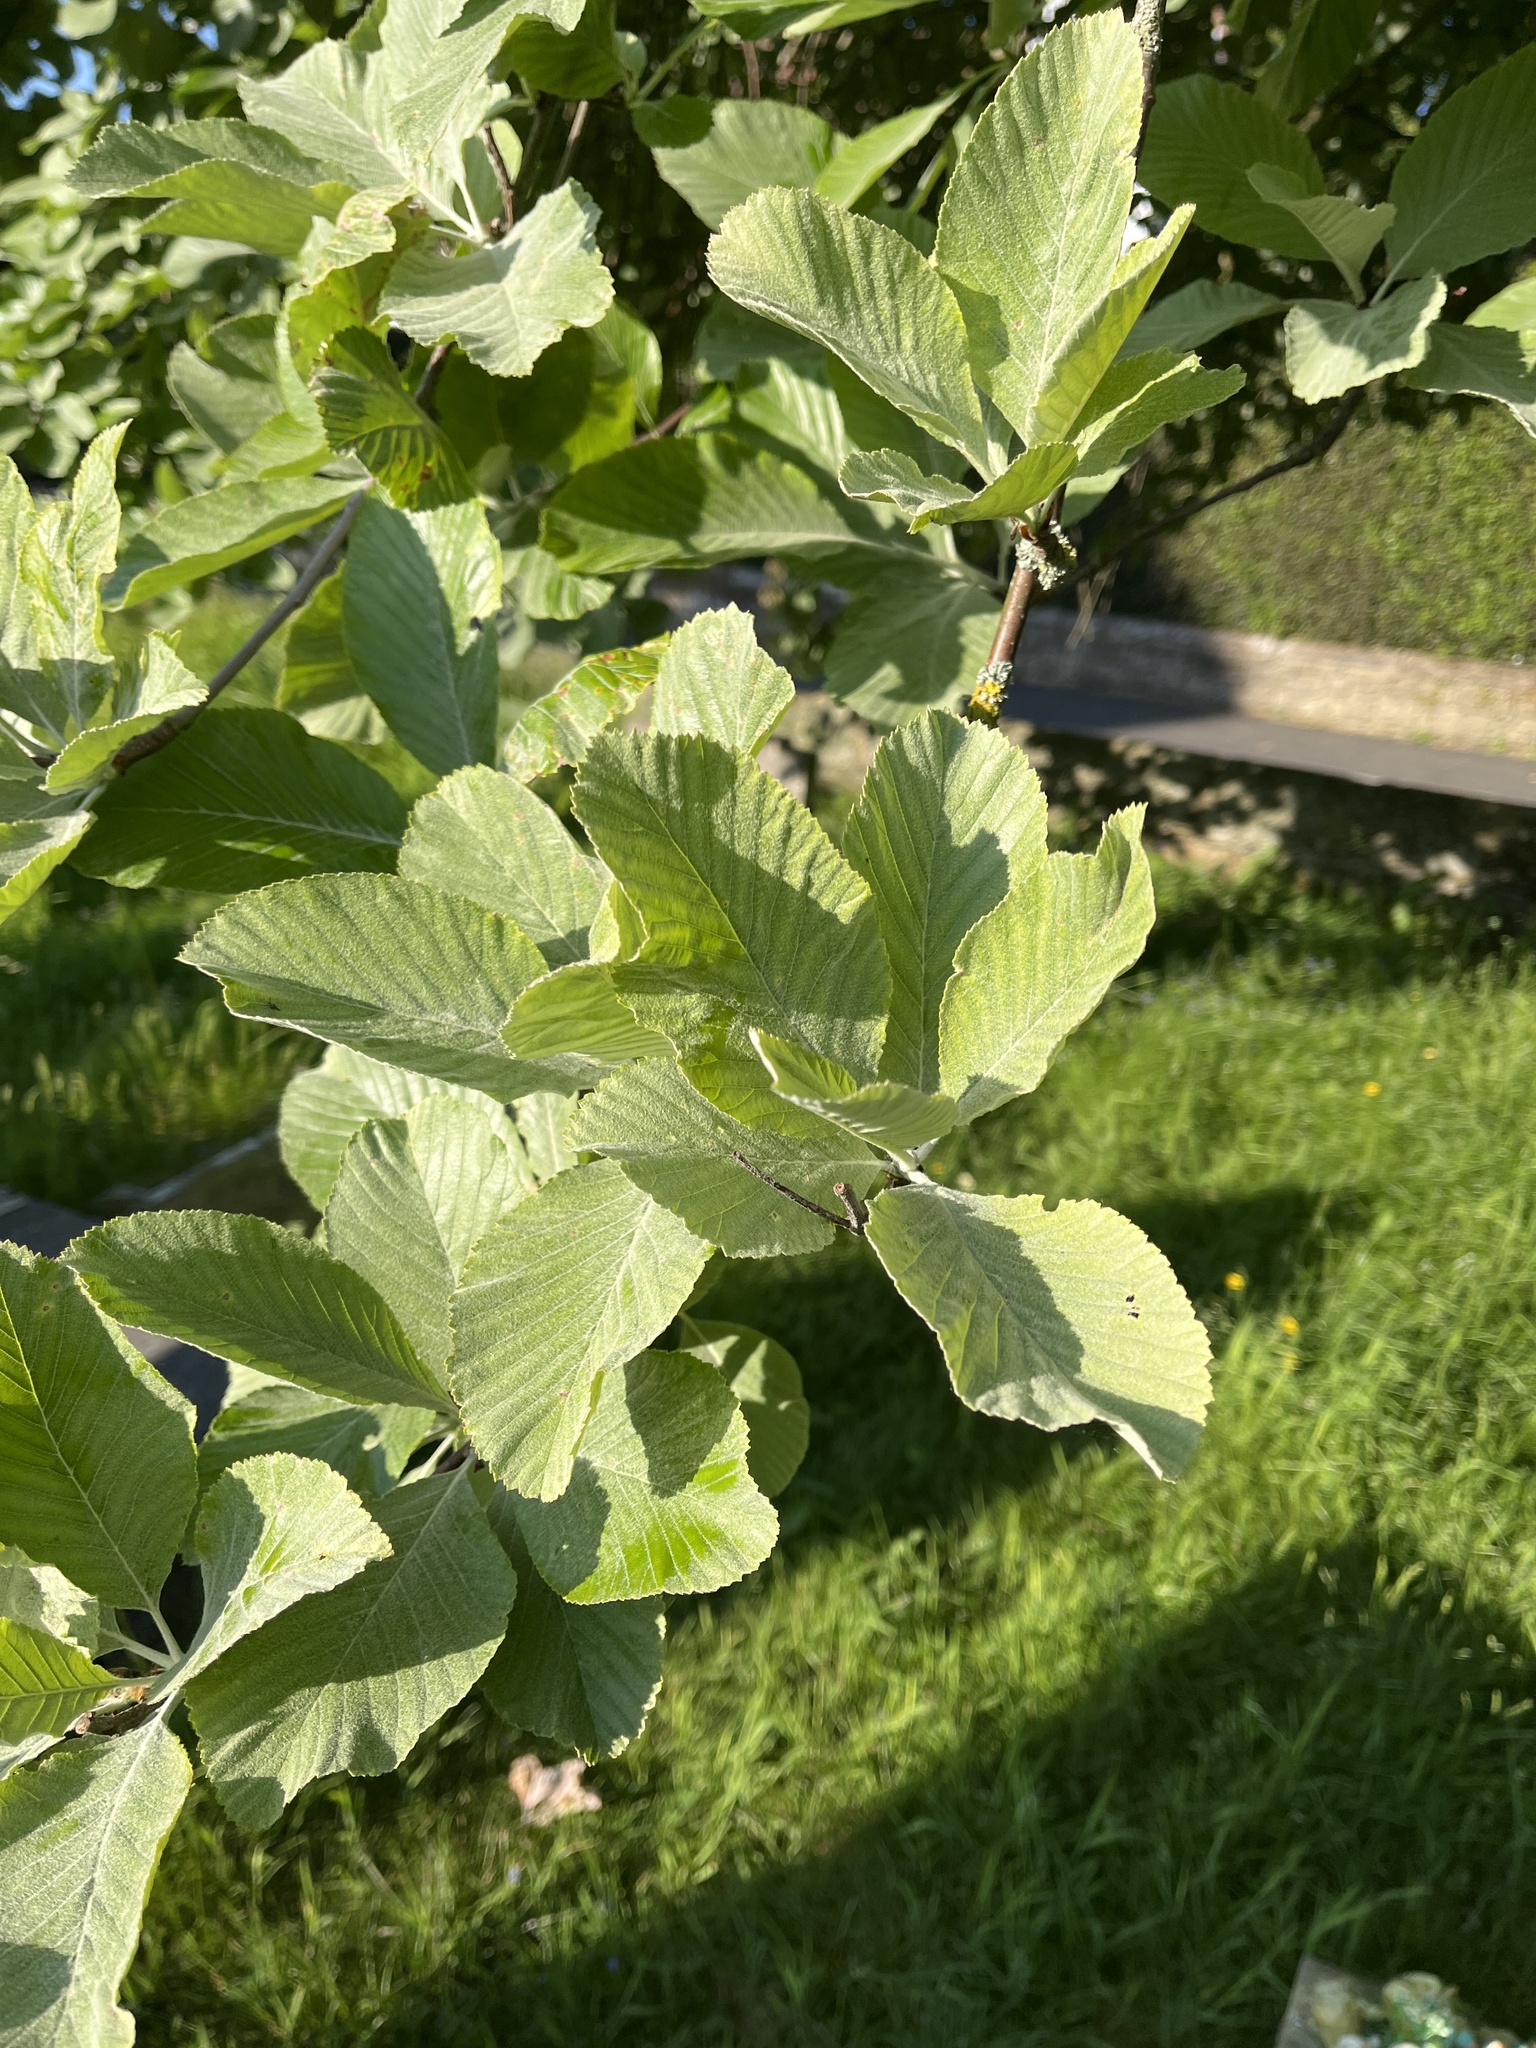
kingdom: Plantae
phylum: Tracheophyta
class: Magnoliopsida
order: Rosales
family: Rosaceae
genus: Aria
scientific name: Aria edulis
